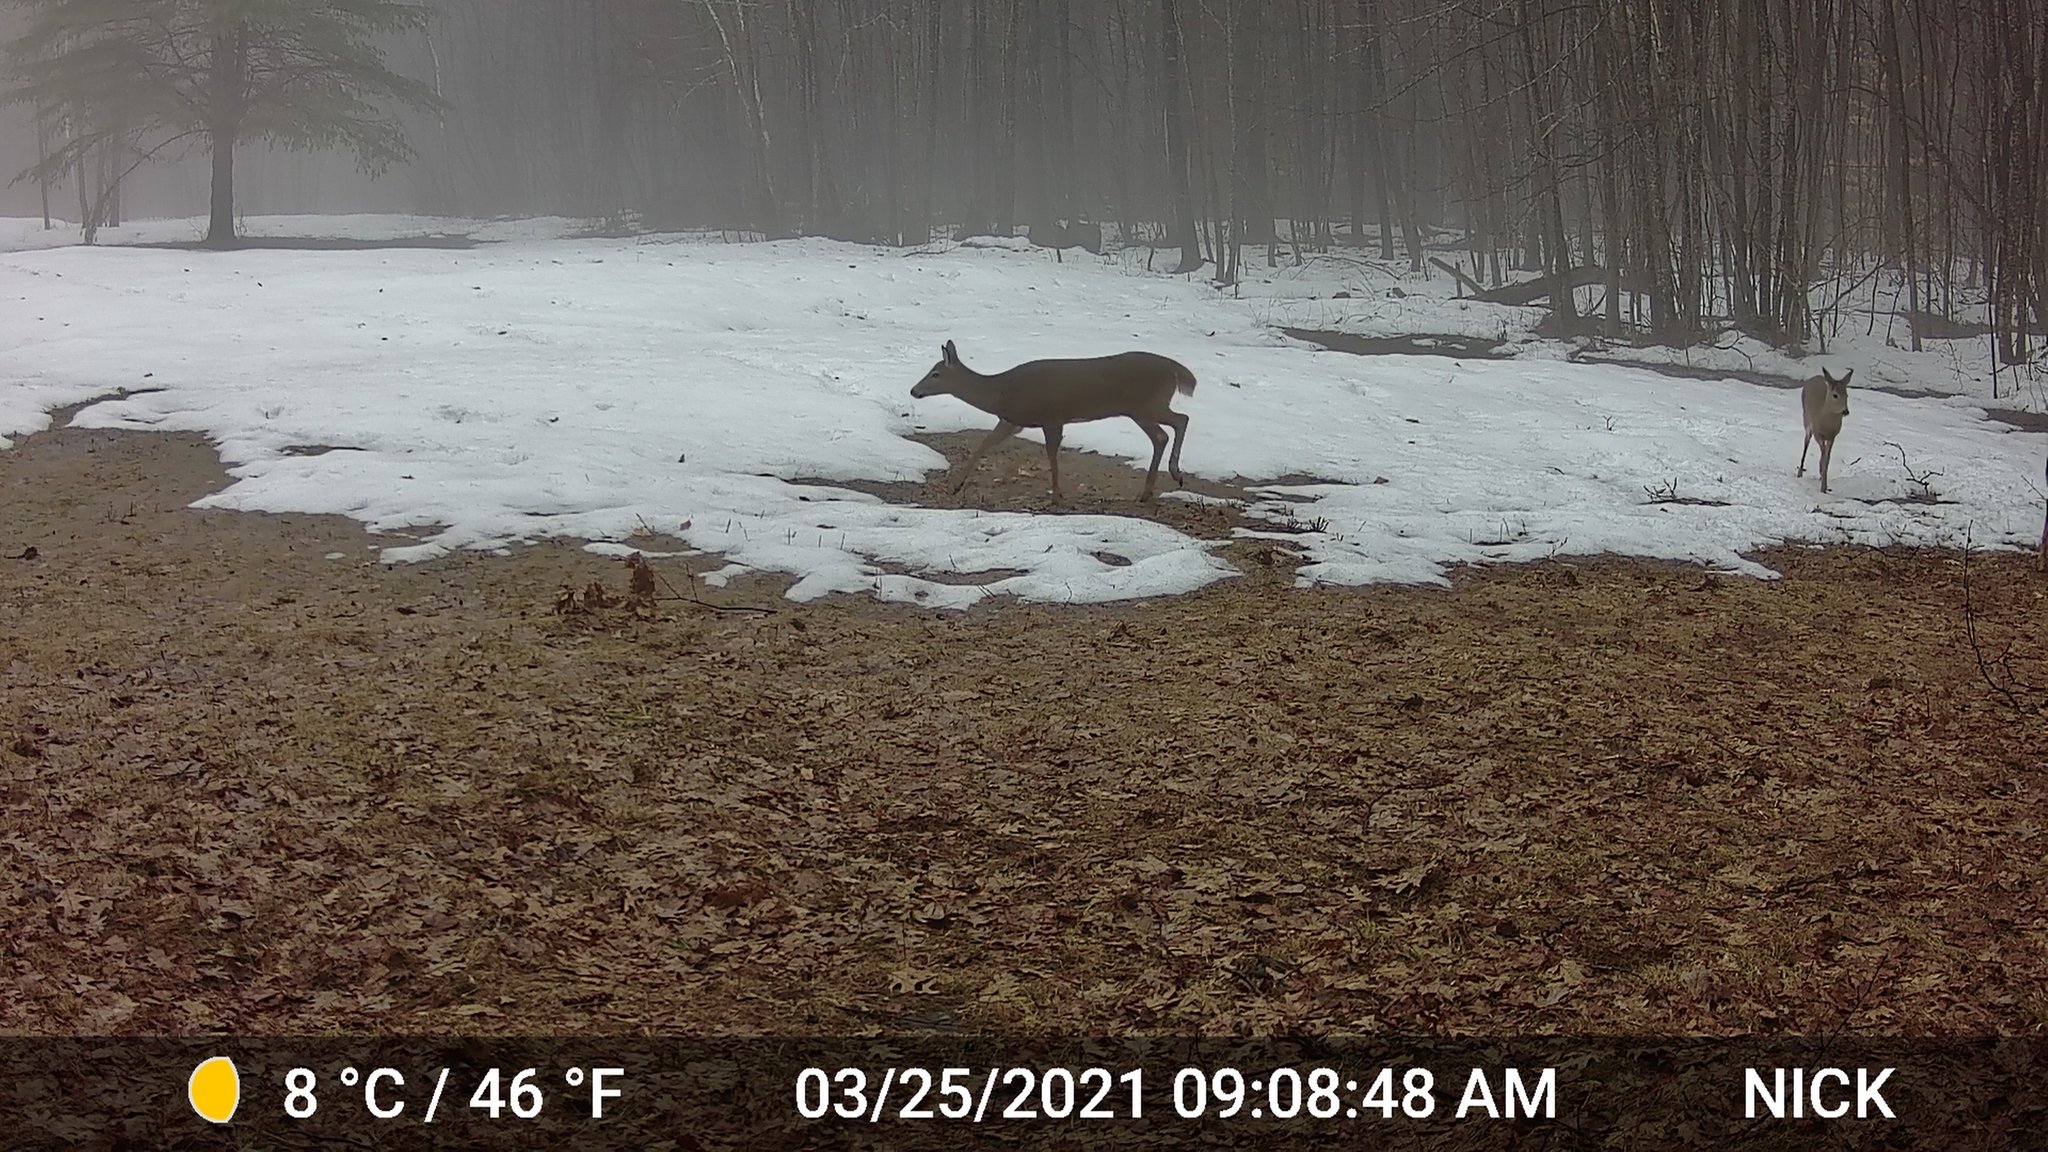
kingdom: Animalia
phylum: Chordata
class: Mammalia
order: Artiodactyla
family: Cervidae
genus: Odocoileus
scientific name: Odocoileus virginianus
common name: White-tailed deer
